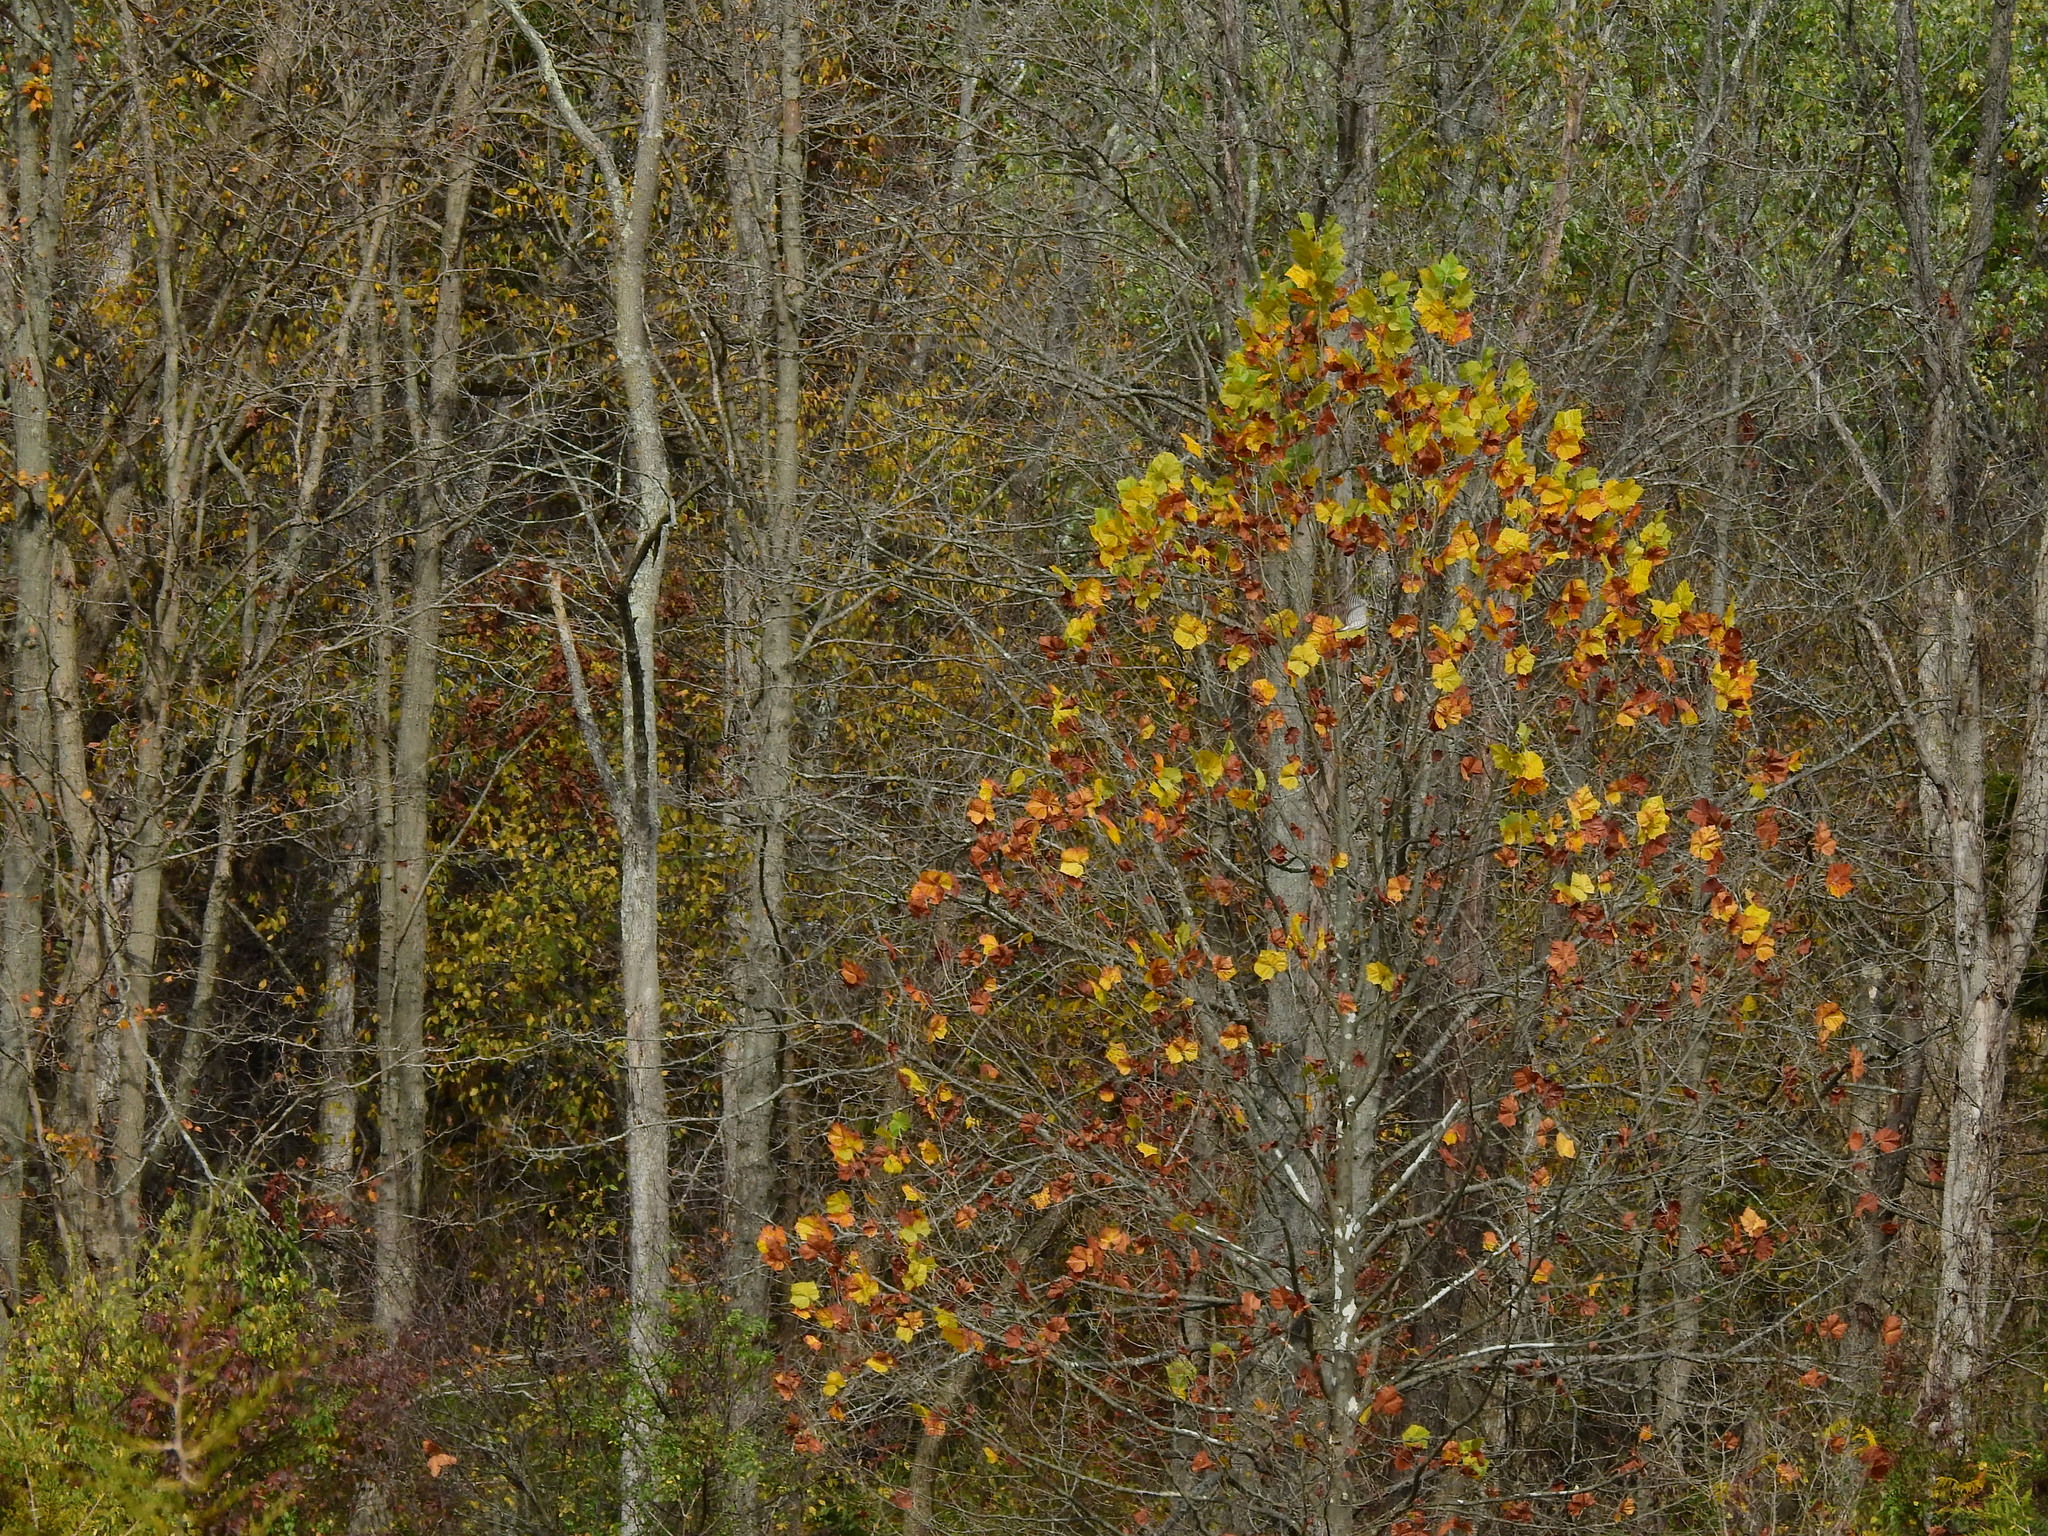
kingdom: Plantae
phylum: Tracheophyta
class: Magnoliopsida
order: Proteales
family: Platanaceae
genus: Platanus
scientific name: Platanus occidentalis
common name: American sycamore
